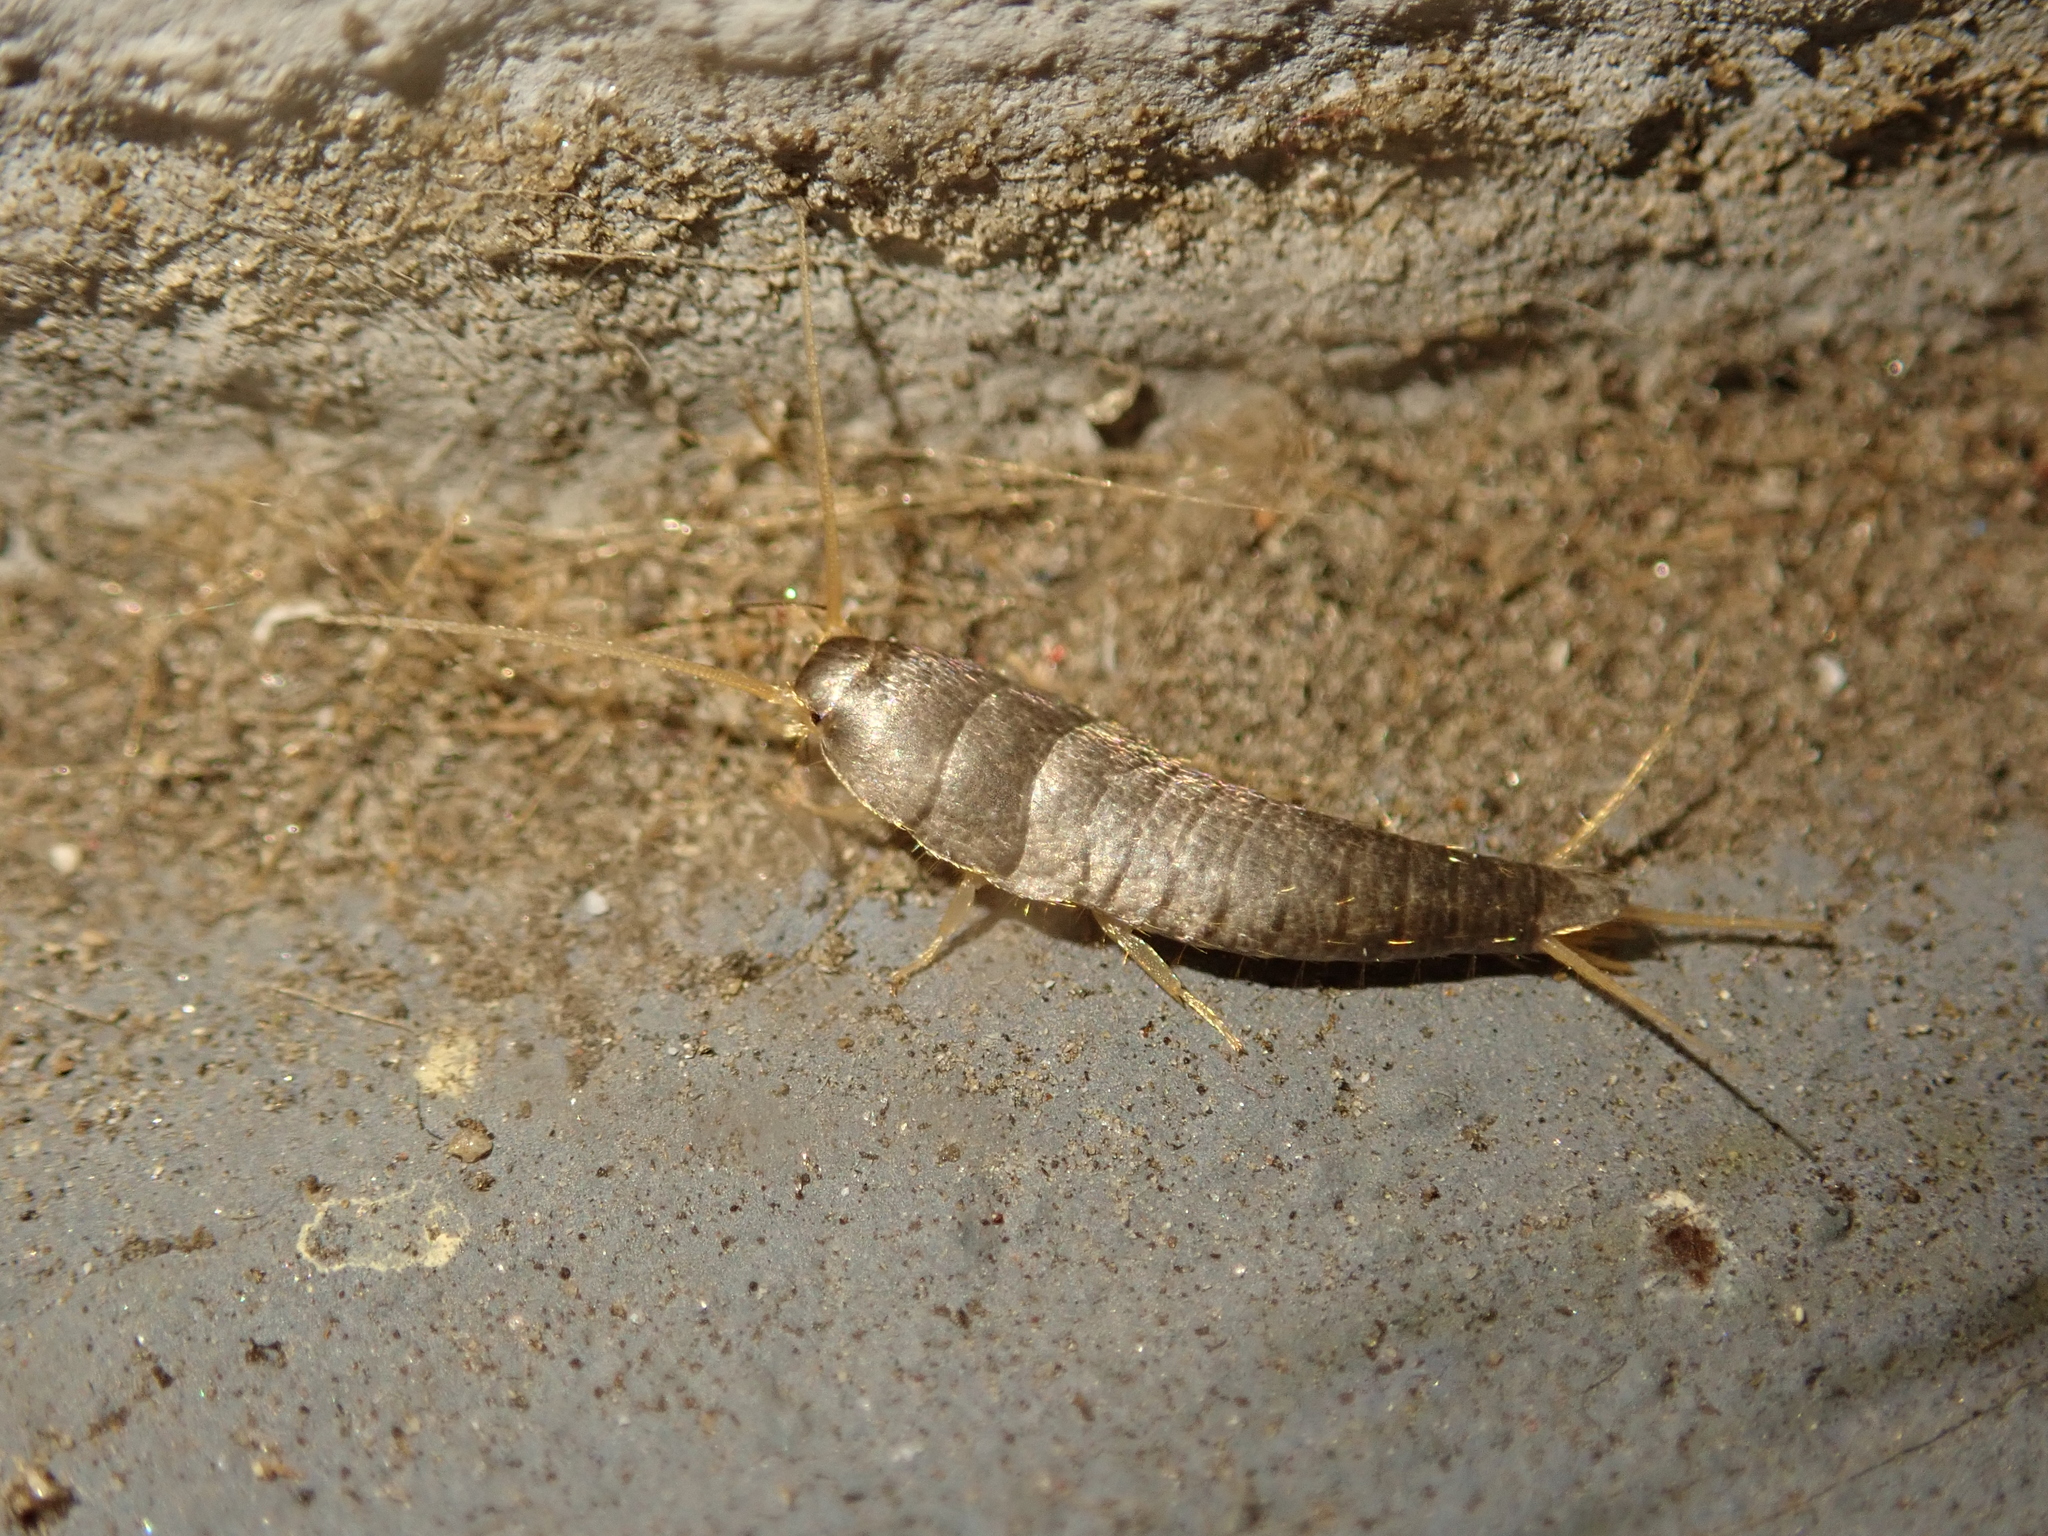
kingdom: Animalia
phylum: Arthropoda
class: Insecta
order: Zygentoma
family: Lepismatidae
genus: Lepisma
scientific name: Lepisma saccharinum
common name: Silverfish
